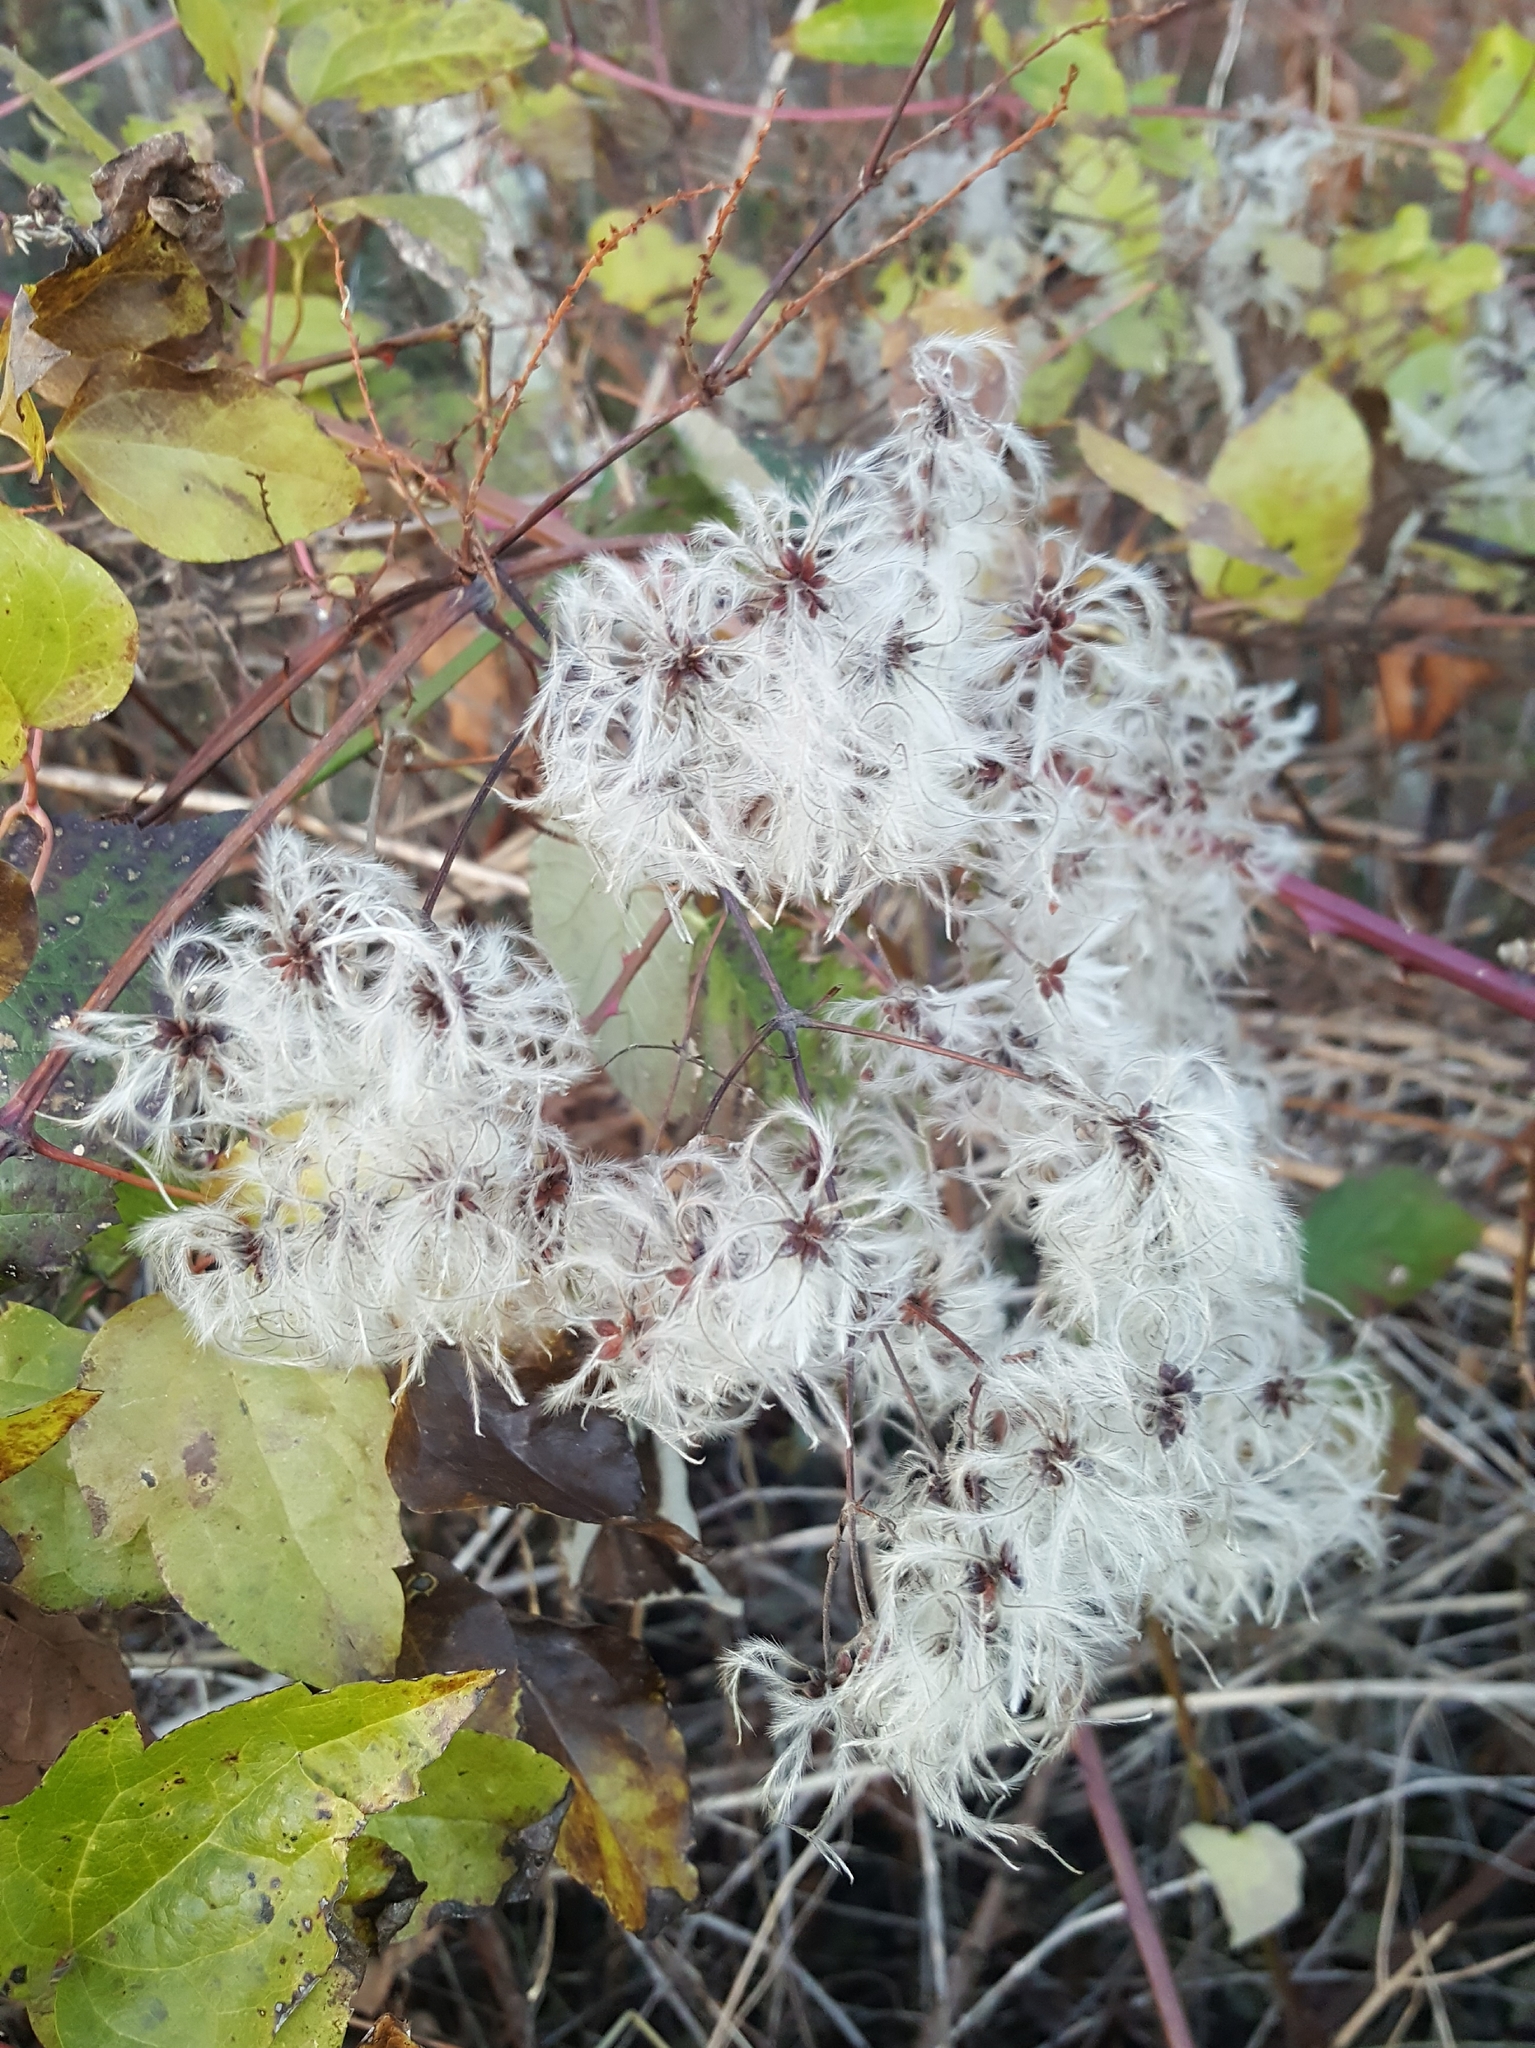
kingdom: Plantae
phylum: Tracheophyta
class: Magnoliopsida
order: Ranunculales
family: Ranunculaceae
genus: Clematis
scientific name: Clematis vitalba
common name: Evergreen clematis
